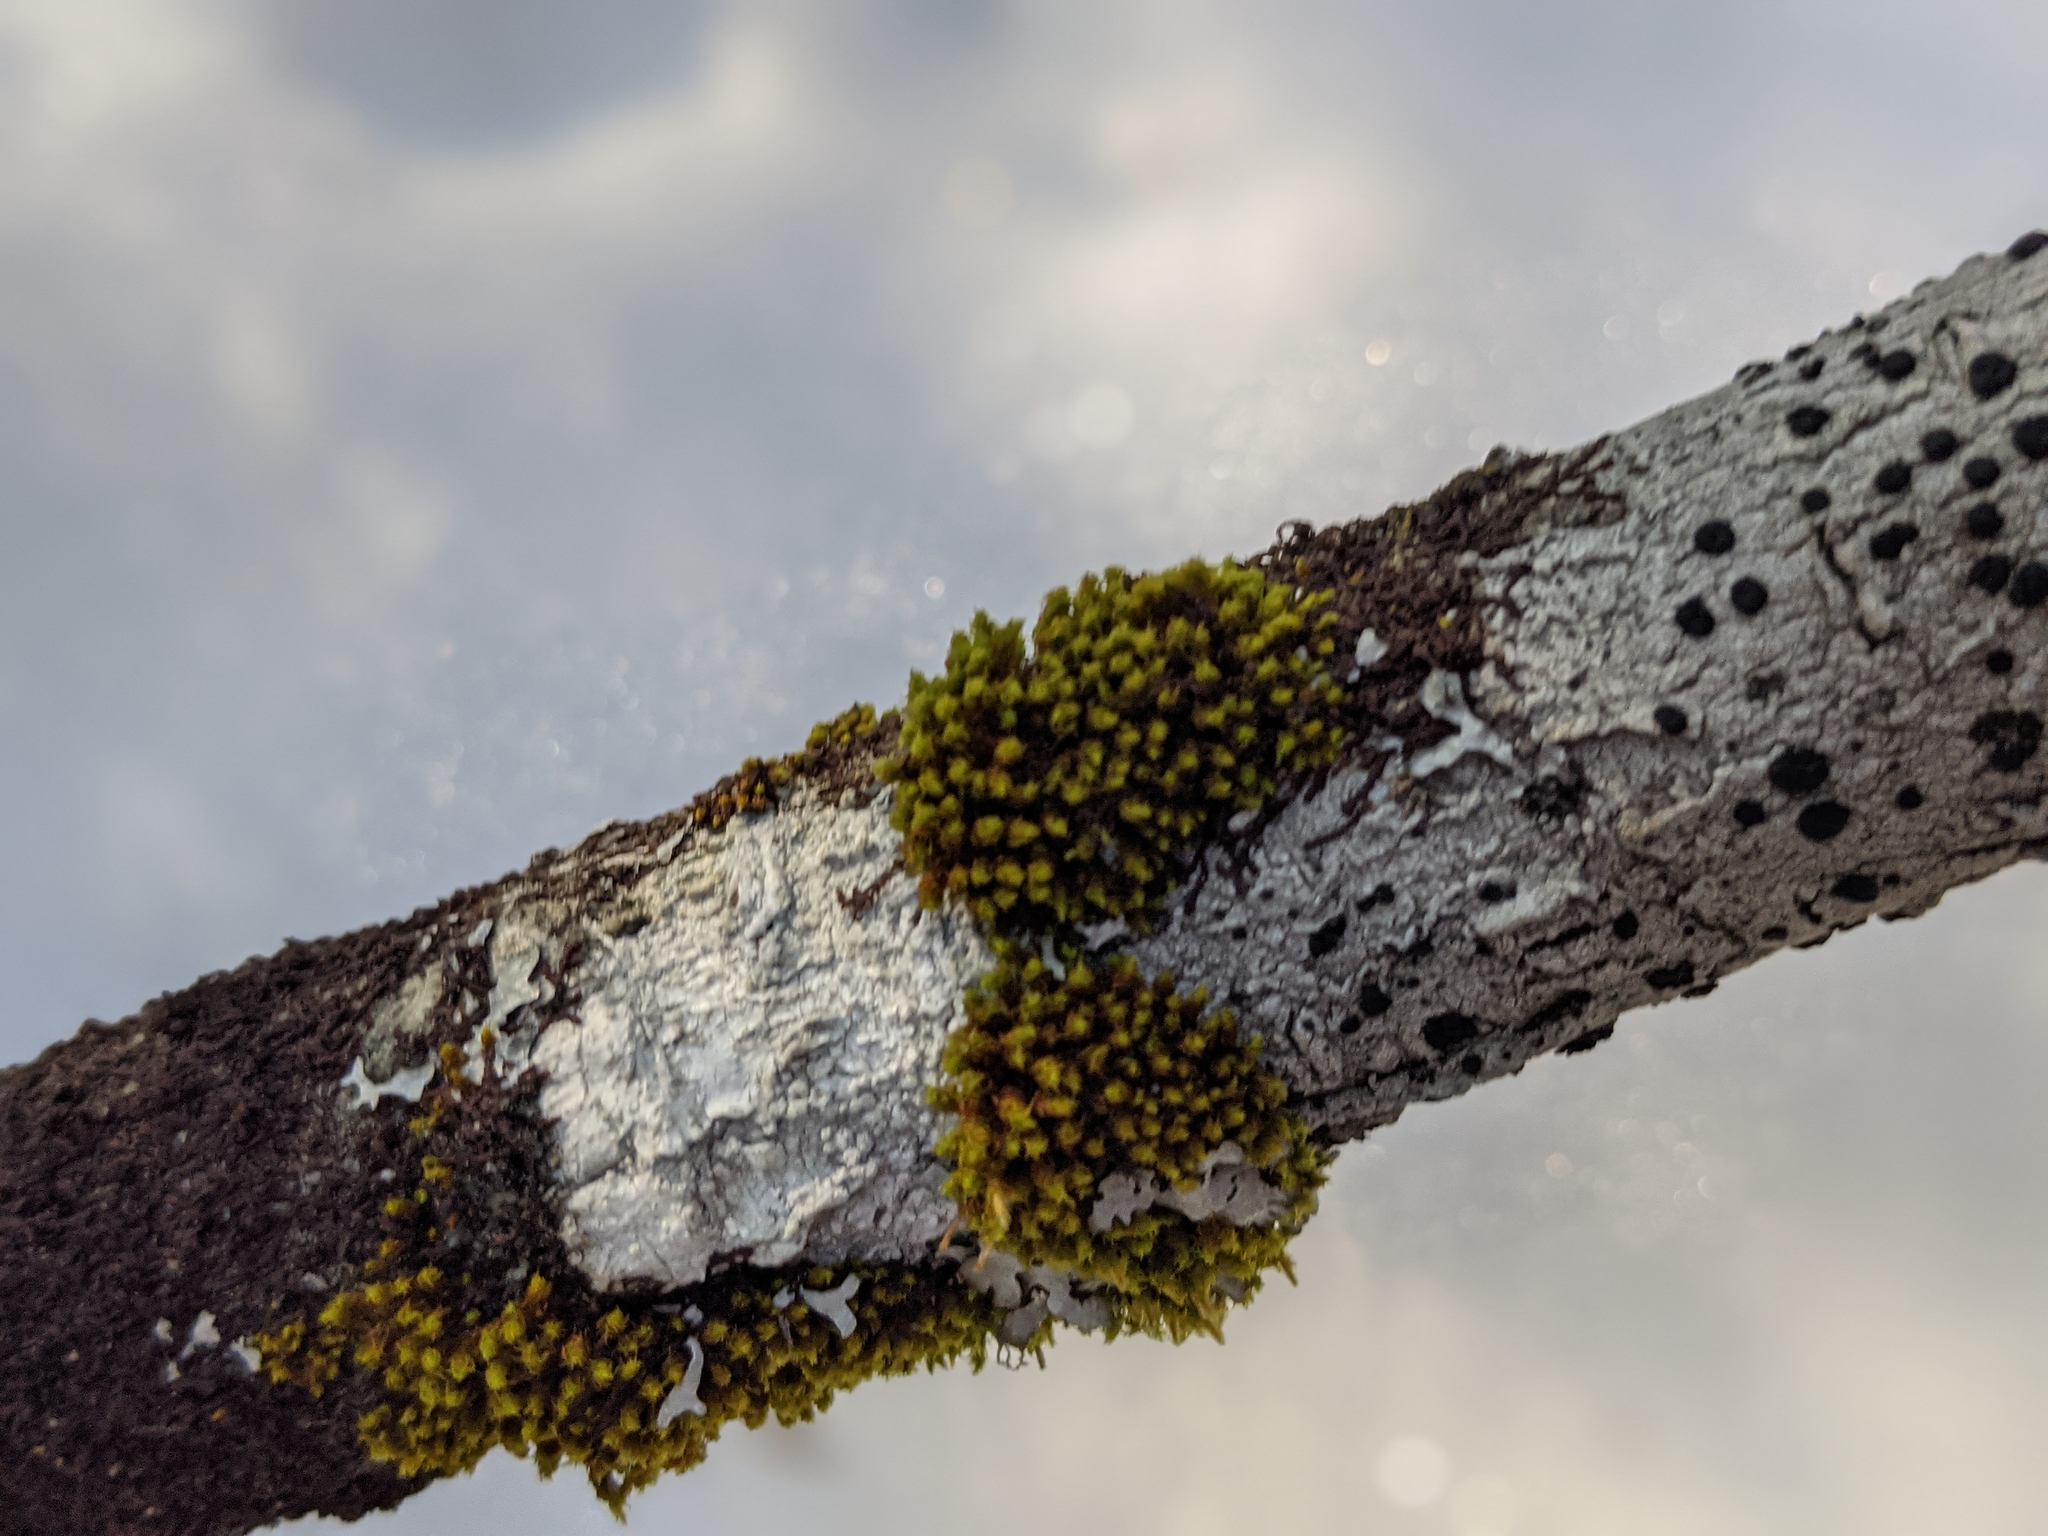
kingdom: Plantae
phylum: Bryophyta
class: Bryopsida
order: Orthotrichales
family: Orthotrichaceae
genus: Ulota
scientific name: Ulota crispa
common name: Crisped pincushion moss
